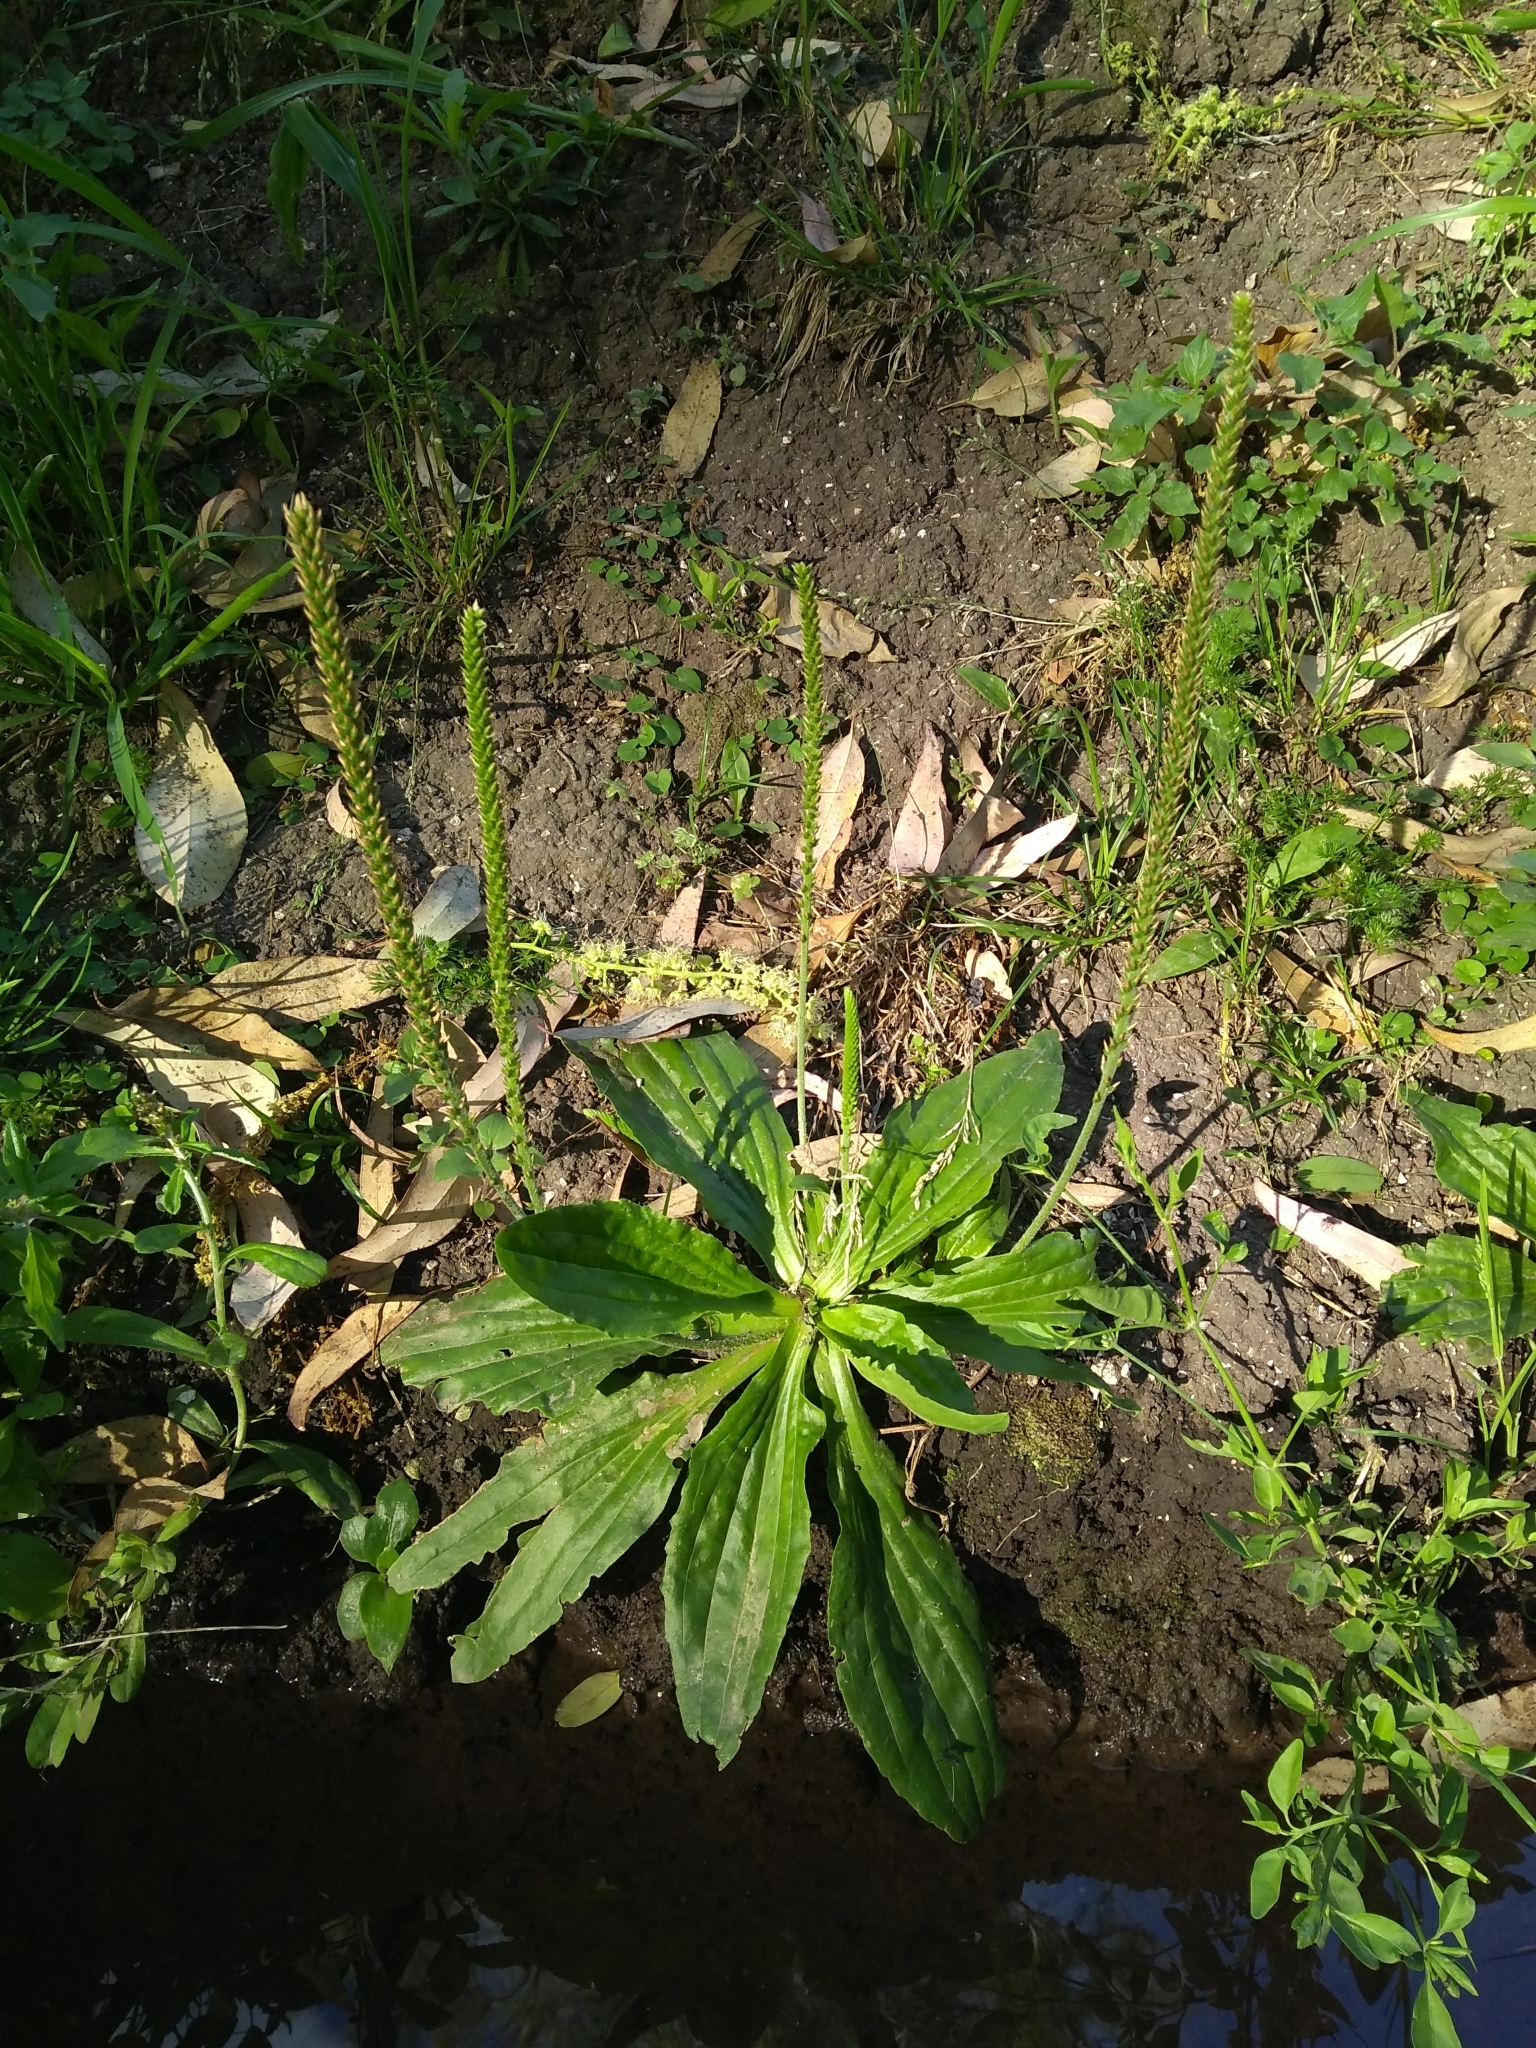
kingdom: Plantae
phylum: Tracheophyta
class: Magnoliopsida
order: Lamiales
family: Plantaginaceae
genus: Plantago
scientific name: Plantago australis
